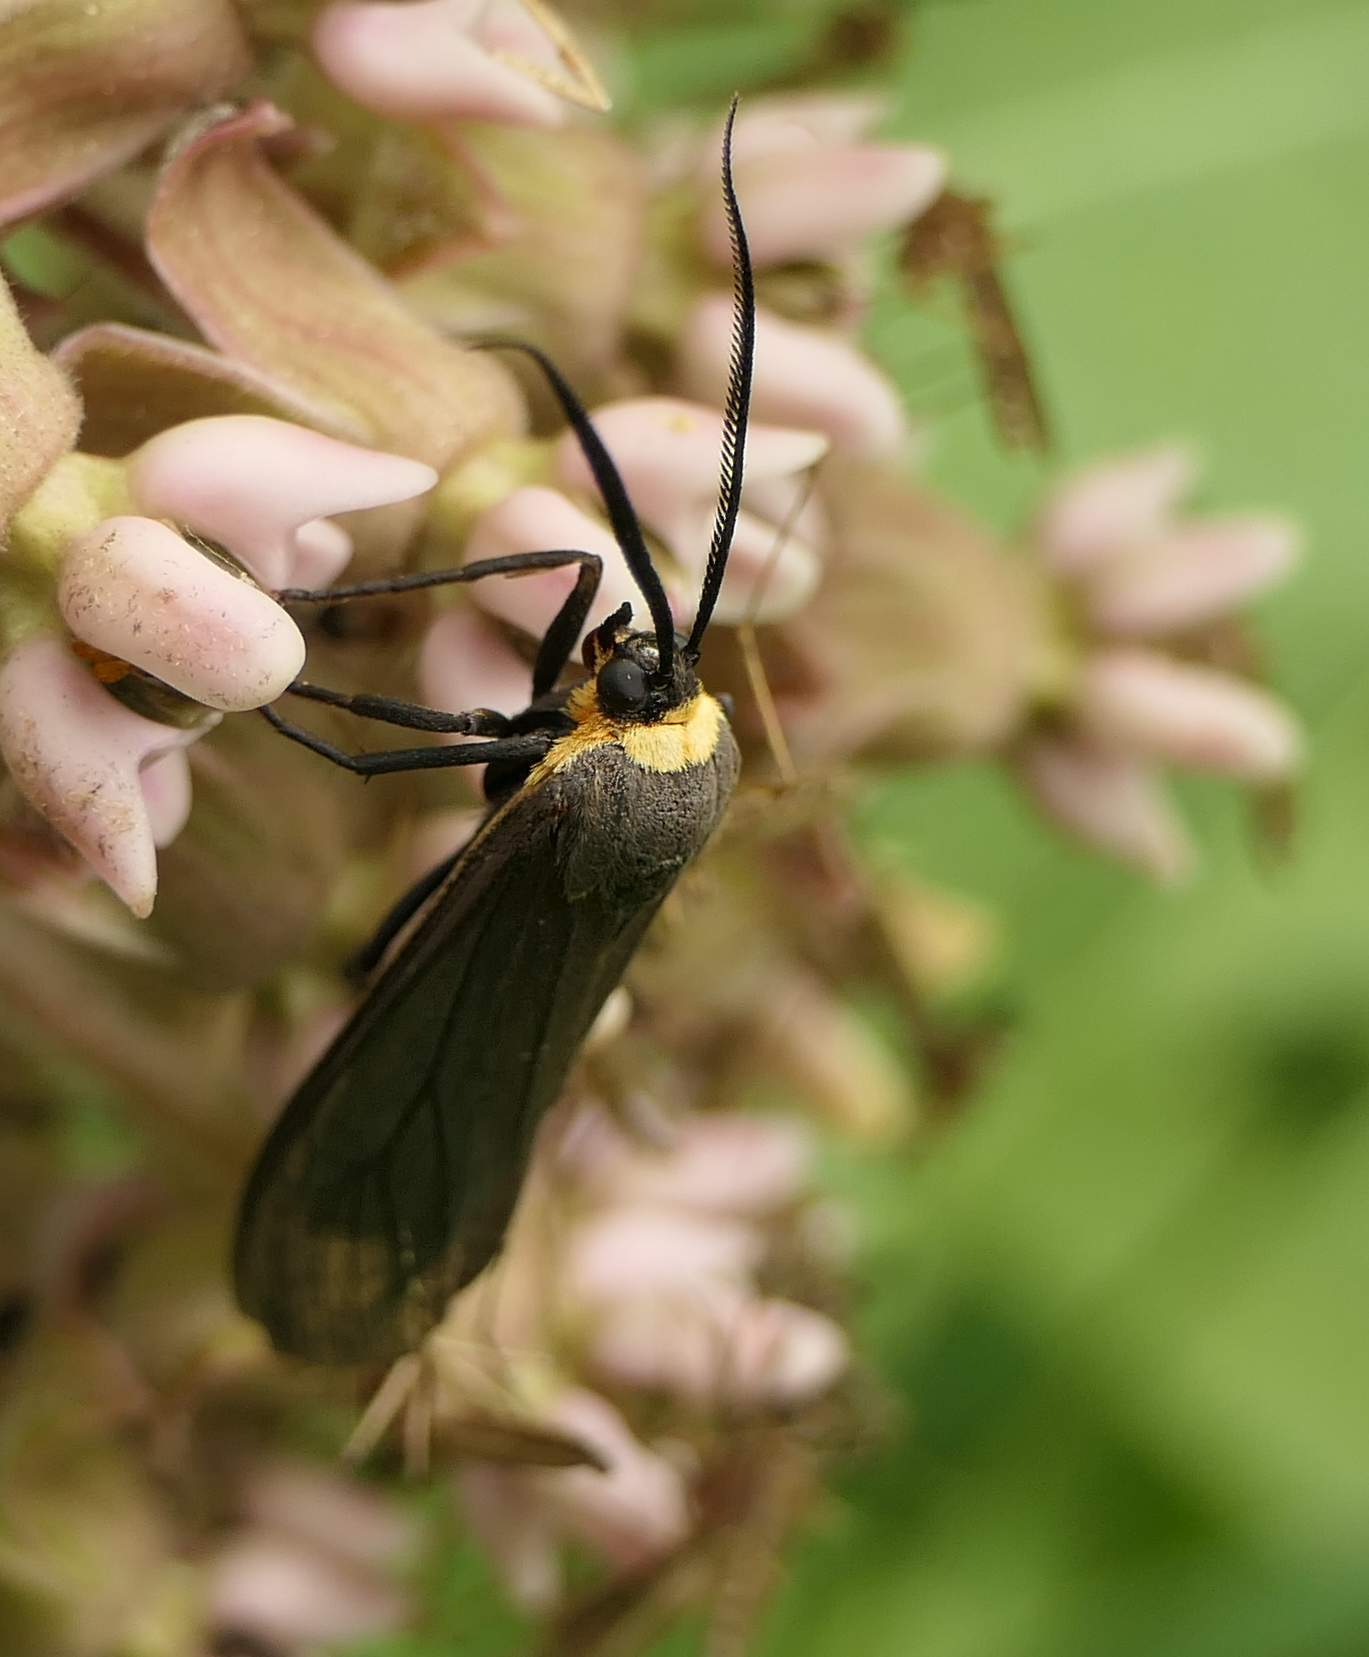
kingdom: Animalia
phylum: Arthropoda
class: Insecta
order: Lepidoptera
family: Erebidae
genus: Cisseps
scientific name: Cisseps fulvicollis
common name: Yellow-collared scape moth
